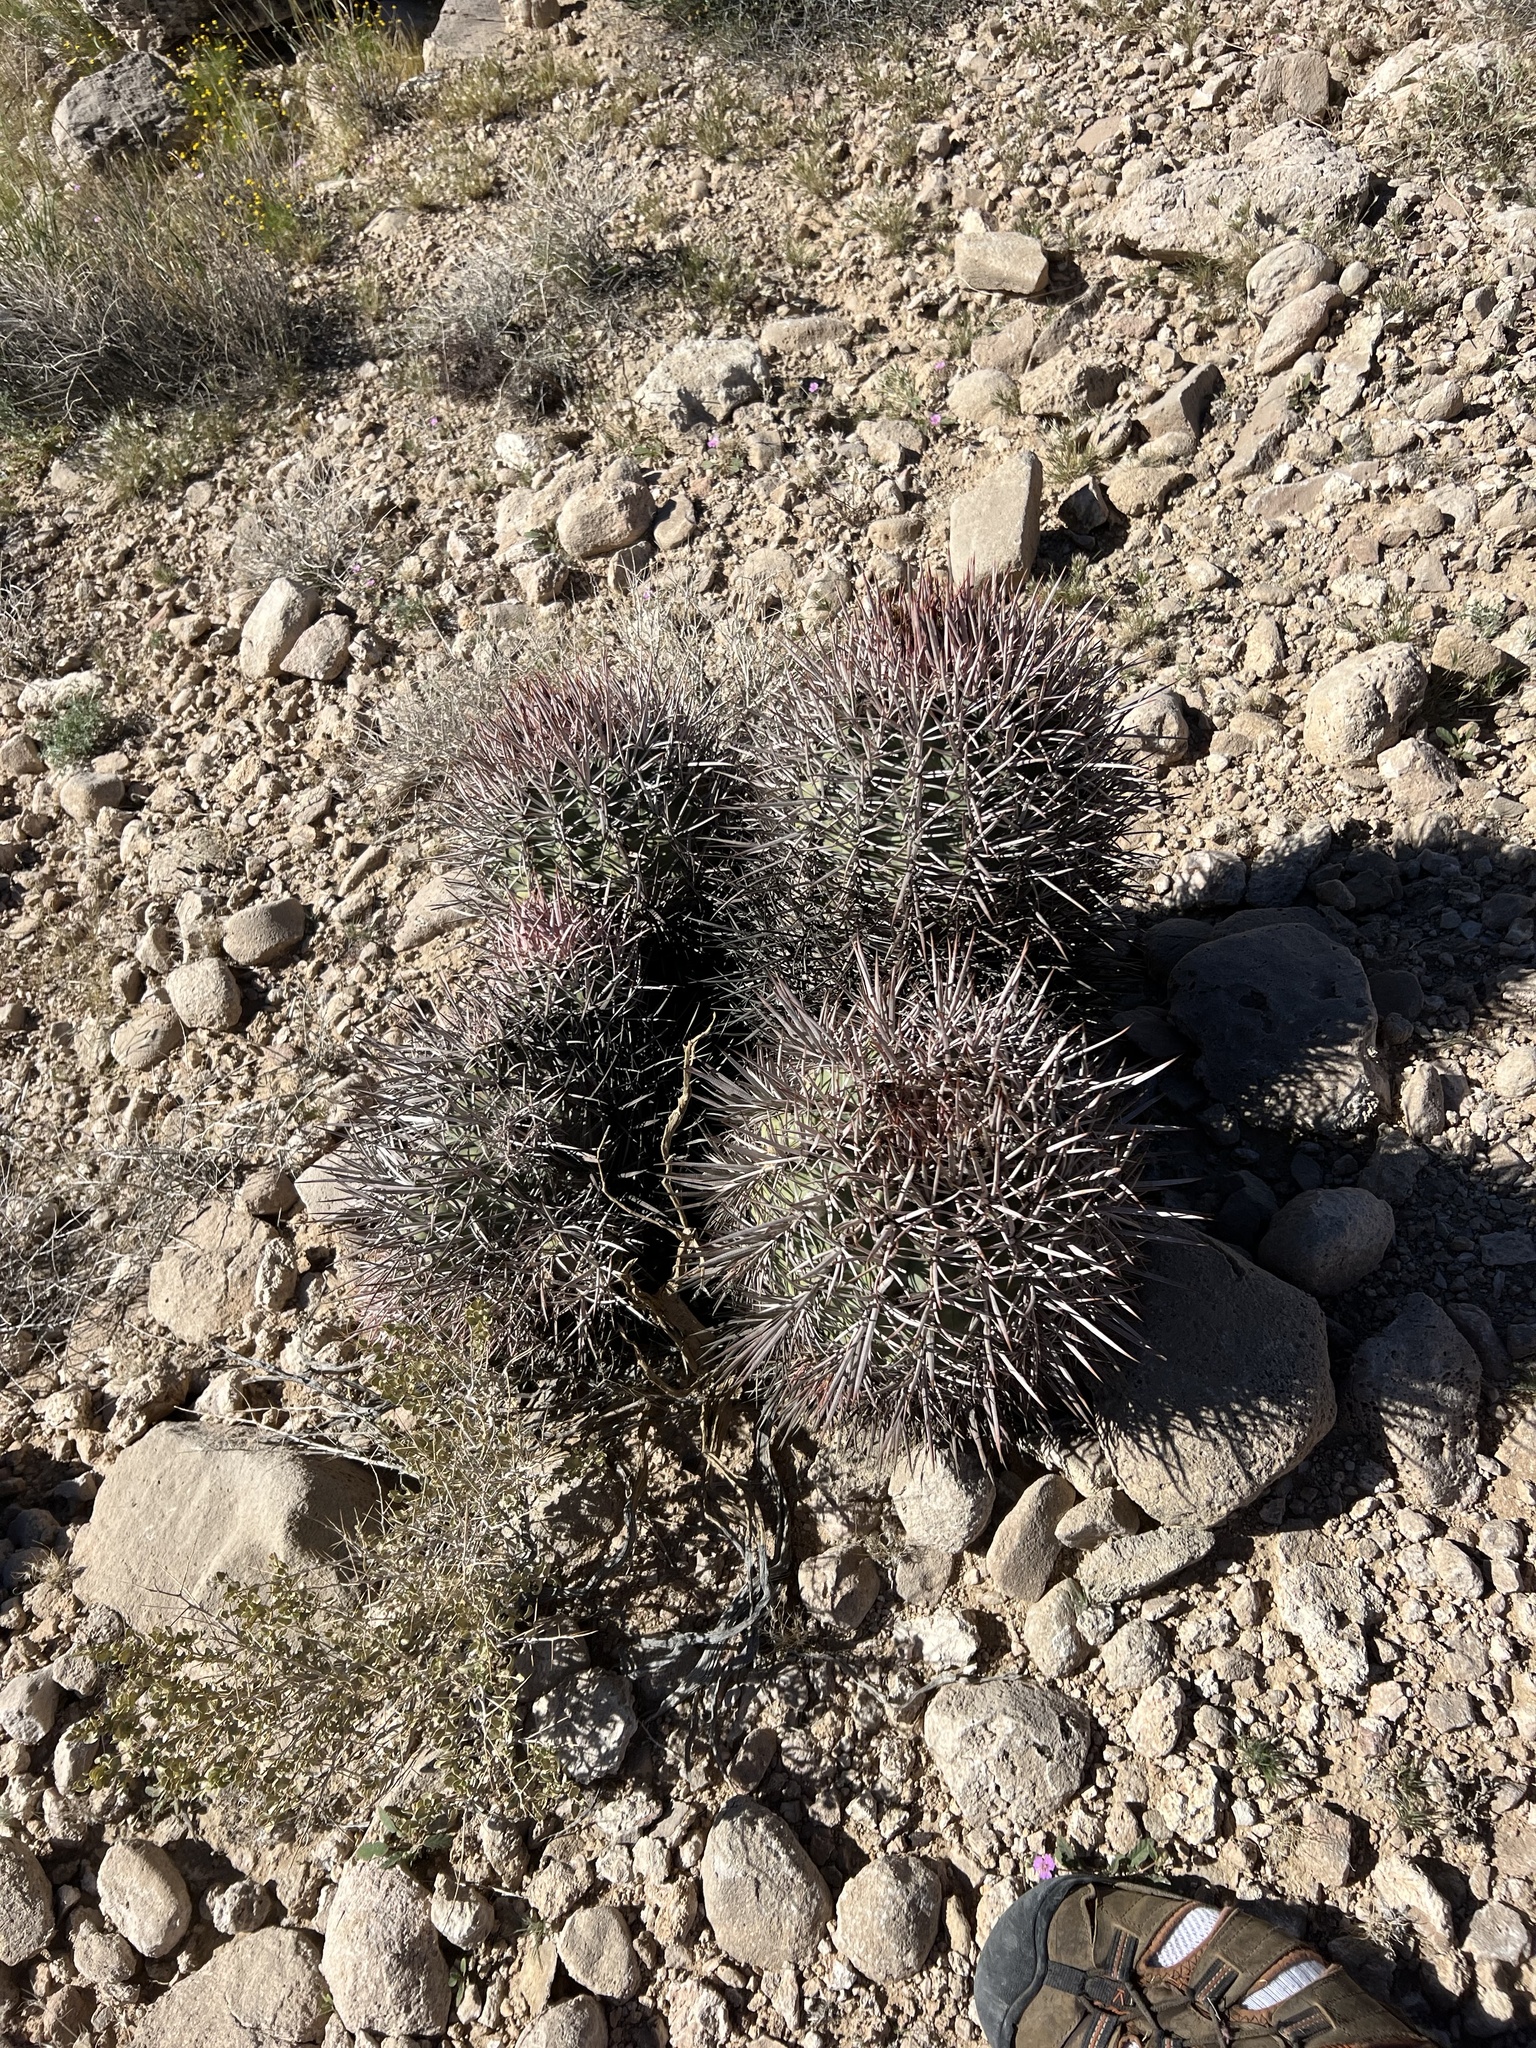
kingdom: Plantae
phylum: Tracheophyta
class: Magnoliopsida
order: Caryophyllales
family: Cactaceae
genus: Echinocactus
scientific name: Echinocactus polycephalus
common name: Cottontop cactus
